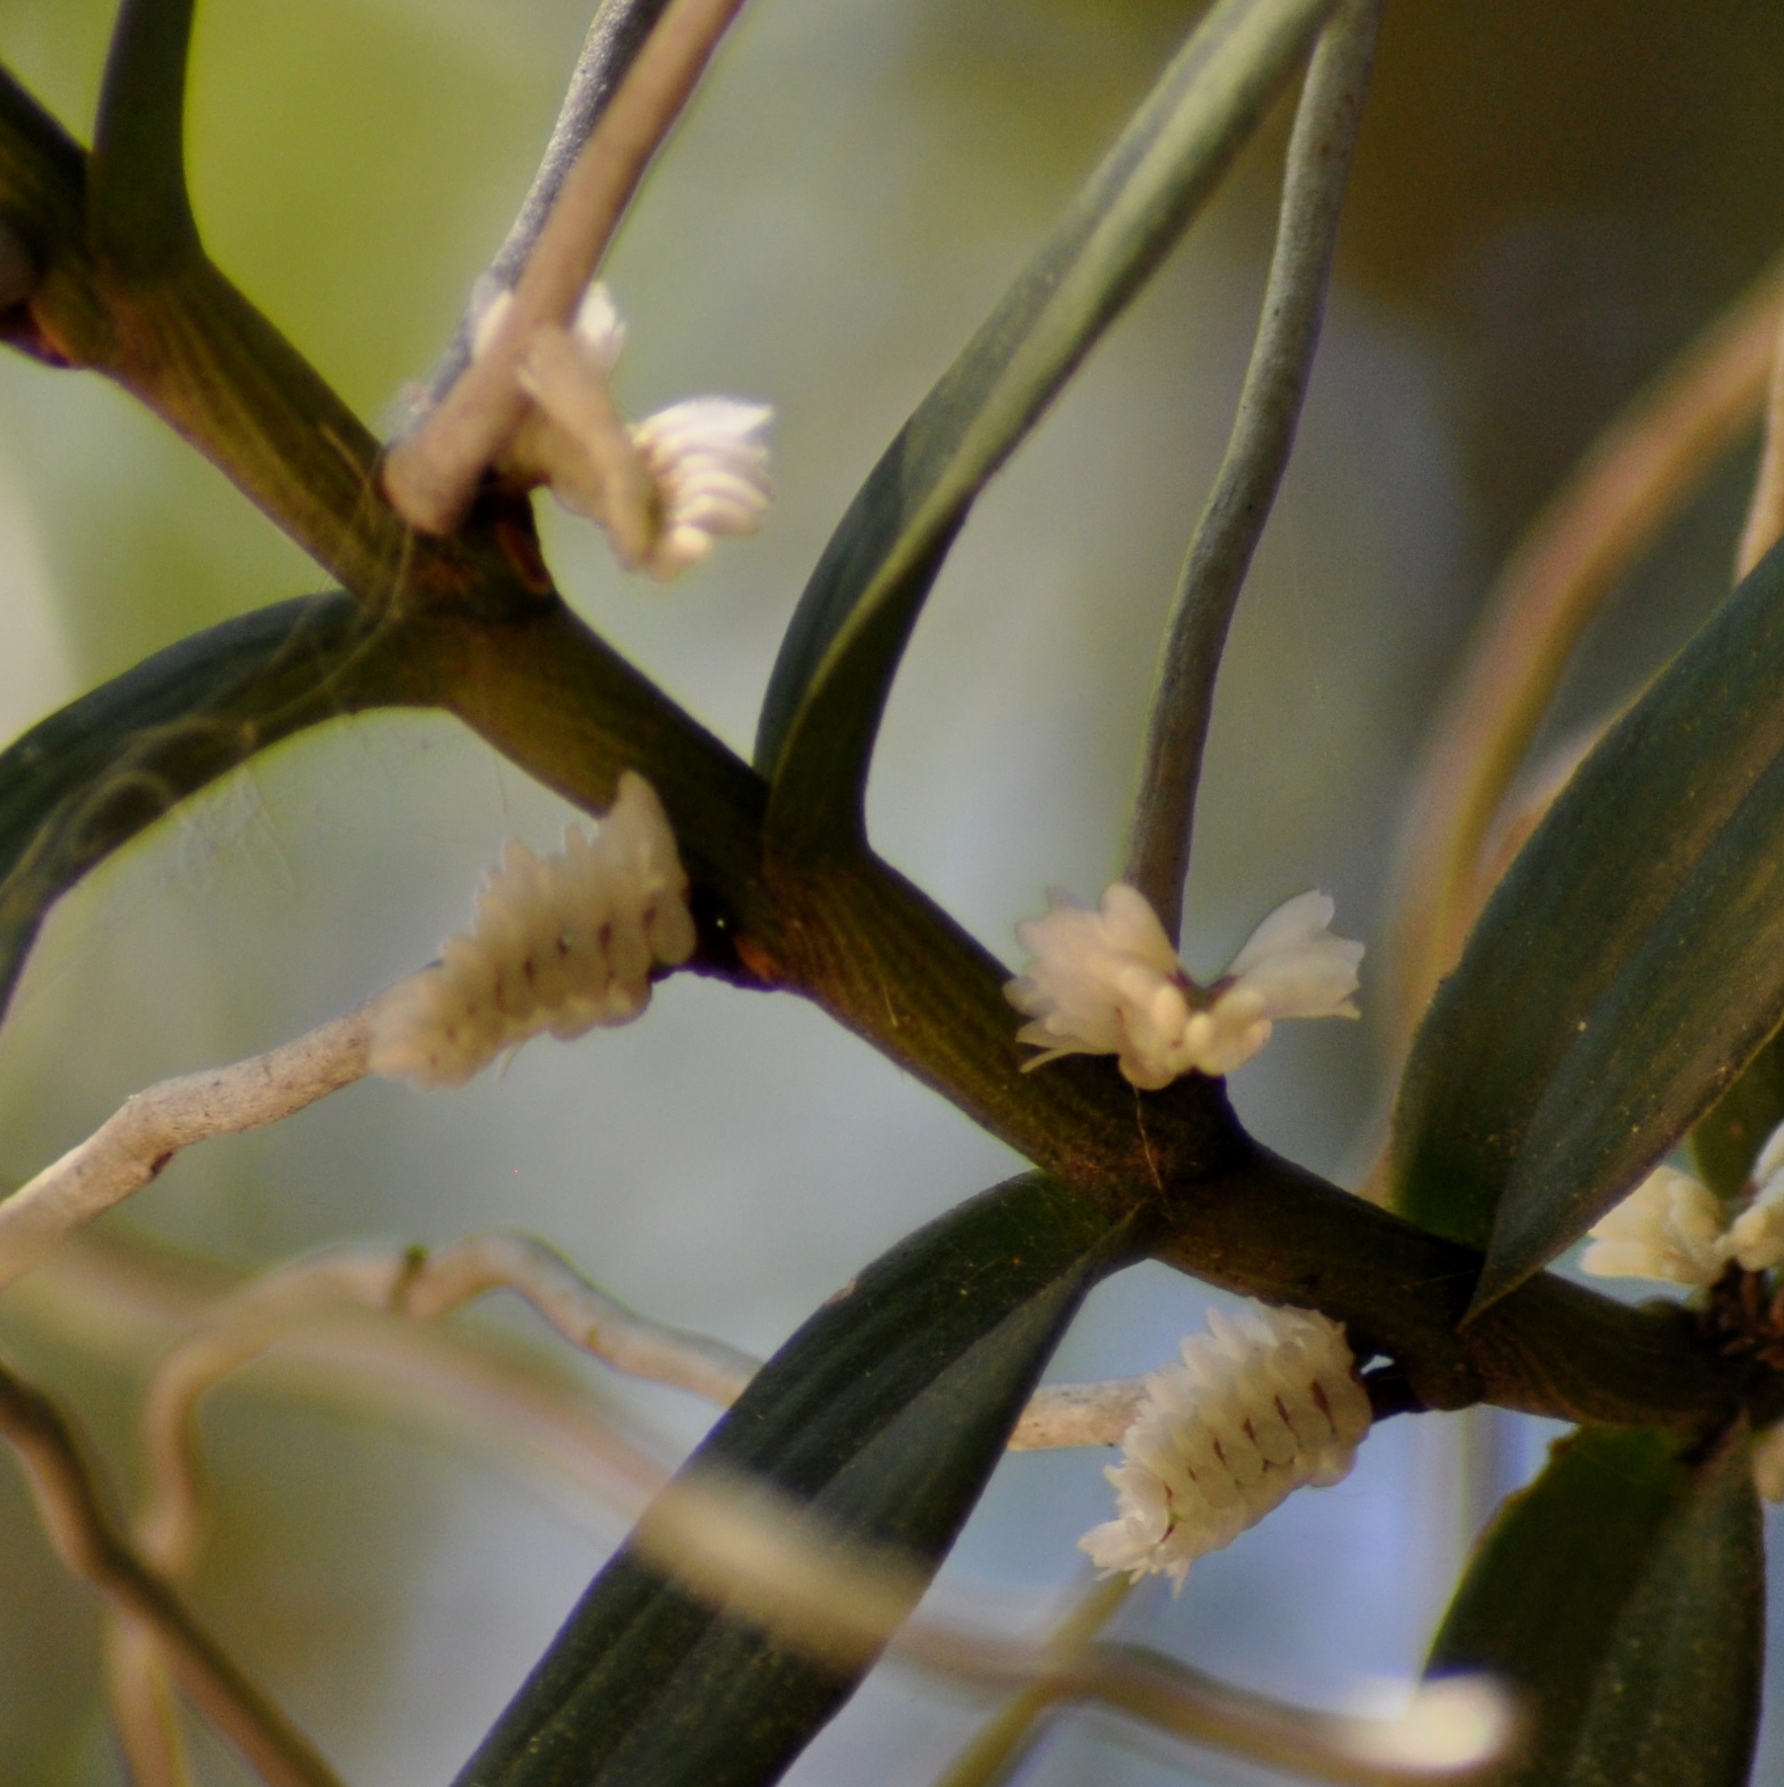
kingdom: Plantae
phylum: Tracheophyta
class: Liliopsida
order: Asparagales
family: Orchidaceae
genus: Campylocentrum
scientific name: Campylocentrum aromaticum
